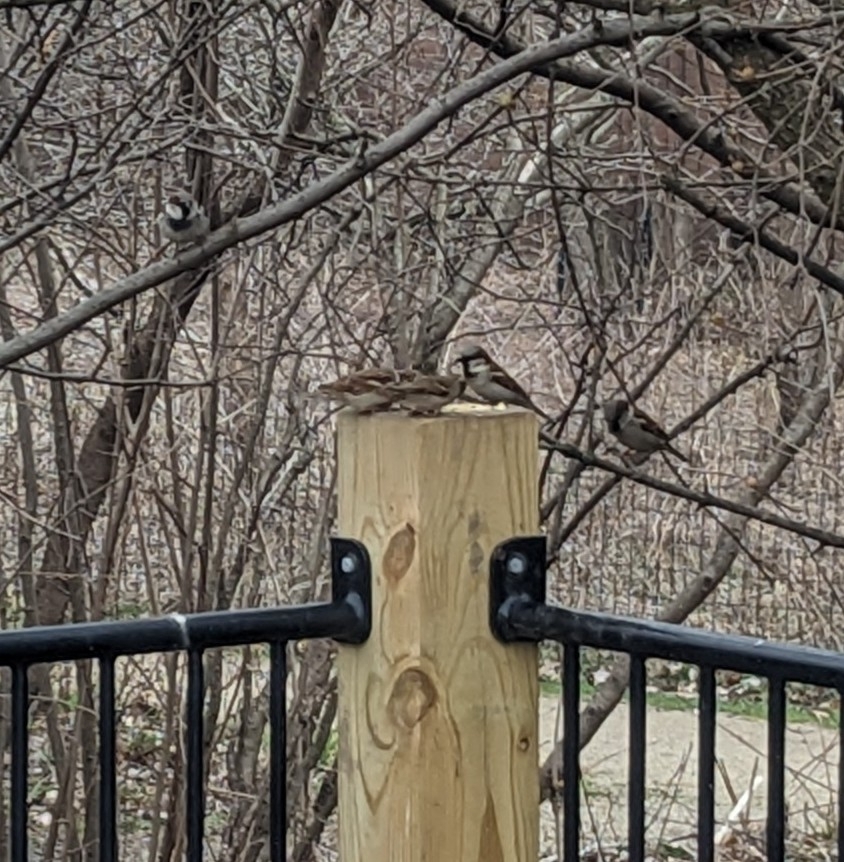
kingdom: Animalia
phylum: Chordata
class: Aves
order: Passeriformes
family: Passeridae
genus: Passer
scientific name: Passer domesticus
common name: House sparrow
